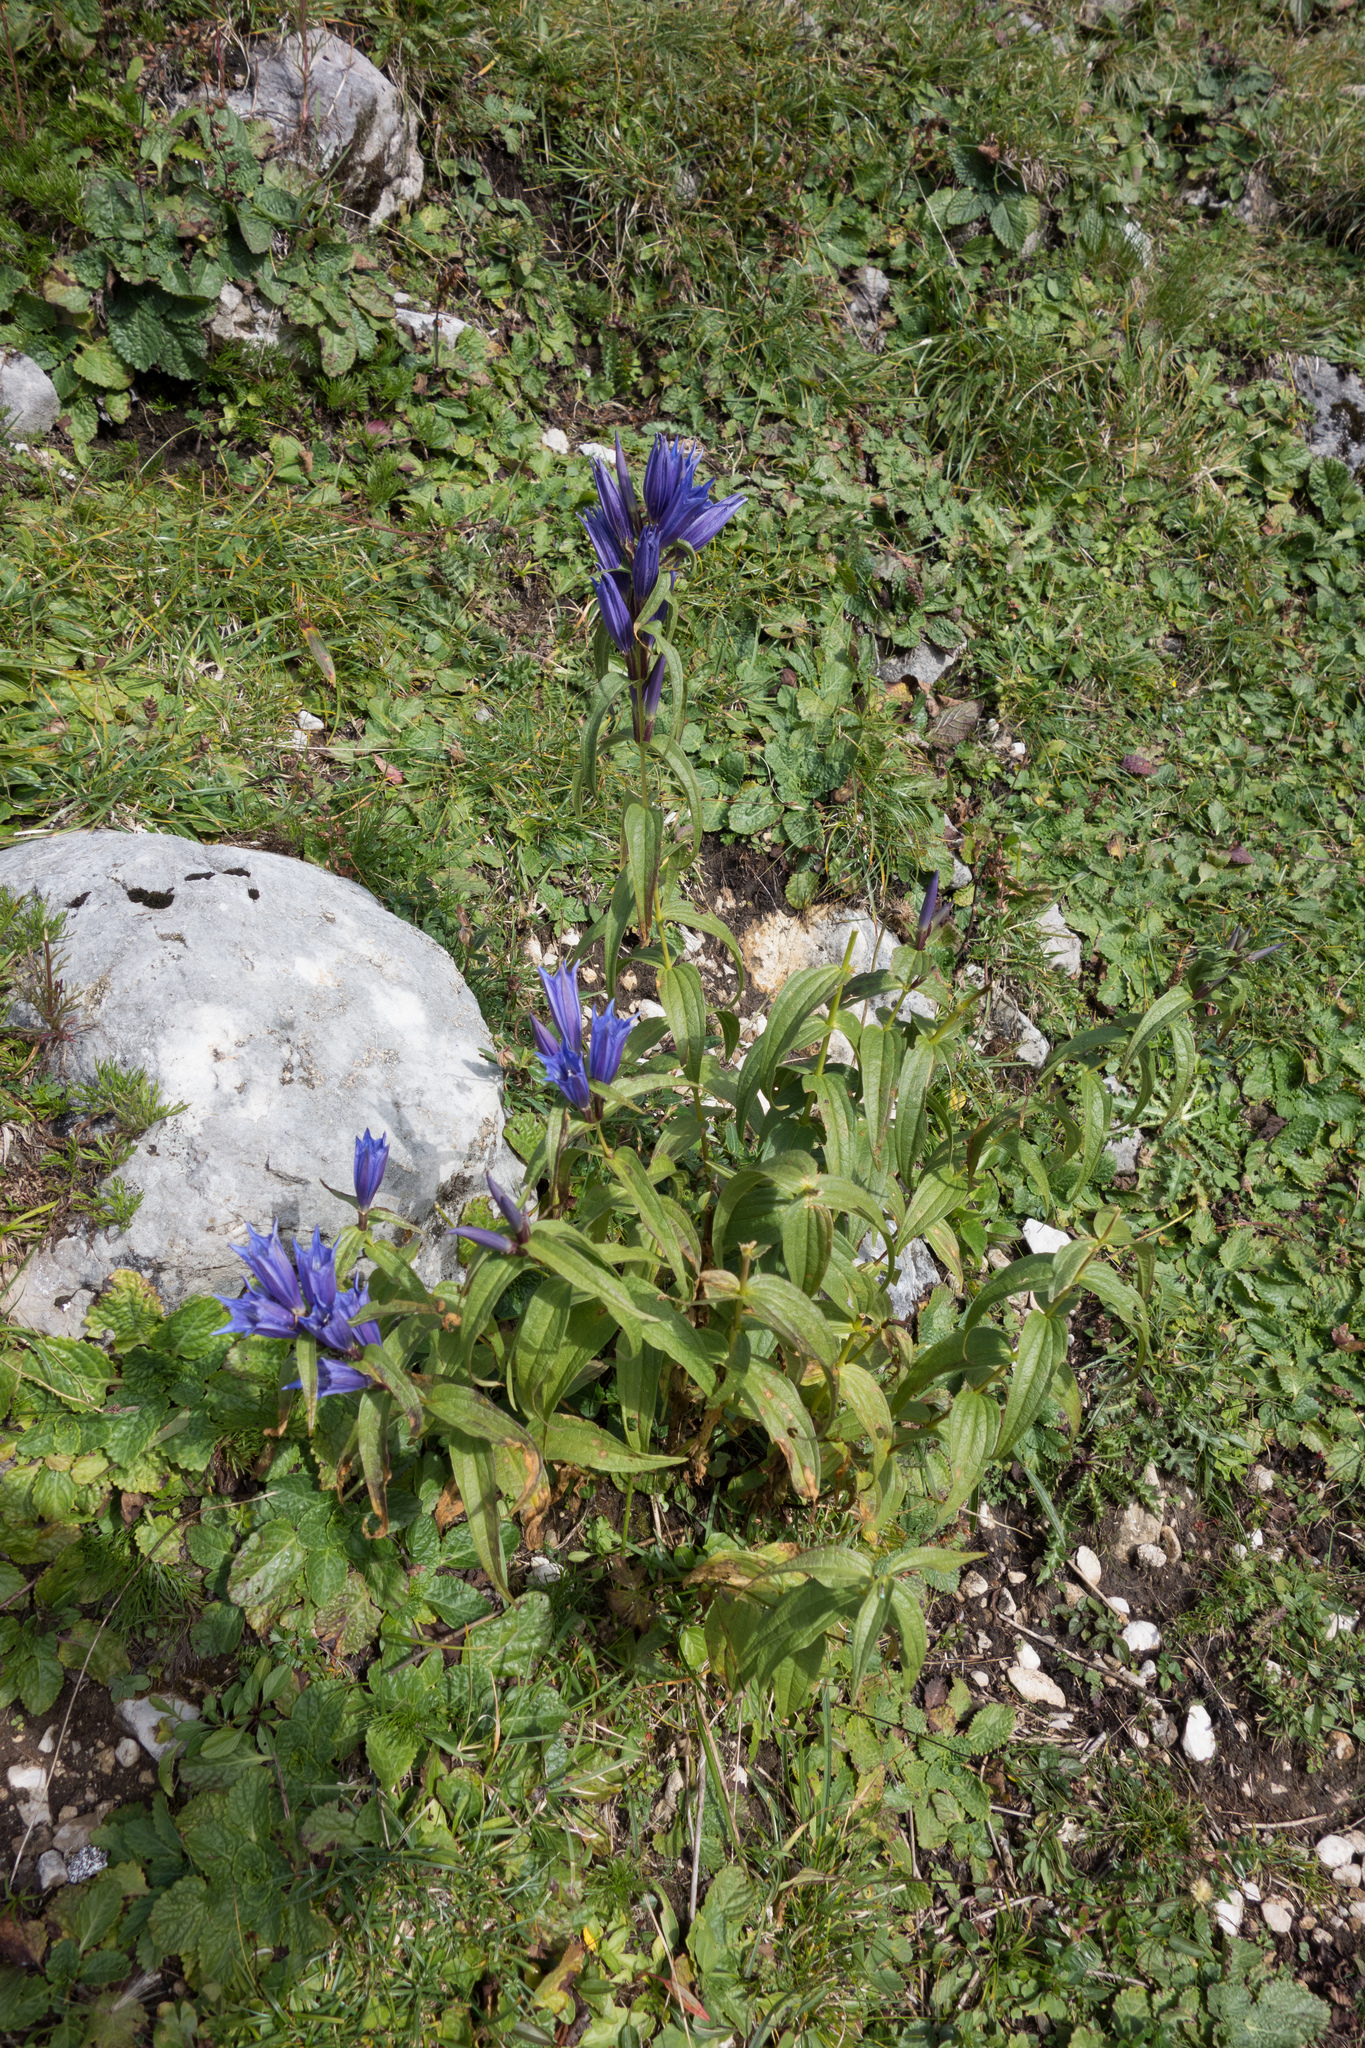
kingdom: Plantae
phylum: Tracheophyta
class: Magnoliopsida
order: Gentianales
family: Gentianaceae
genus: Gentiana
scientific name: Gentiana asclepiadea
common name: Willow gentian
